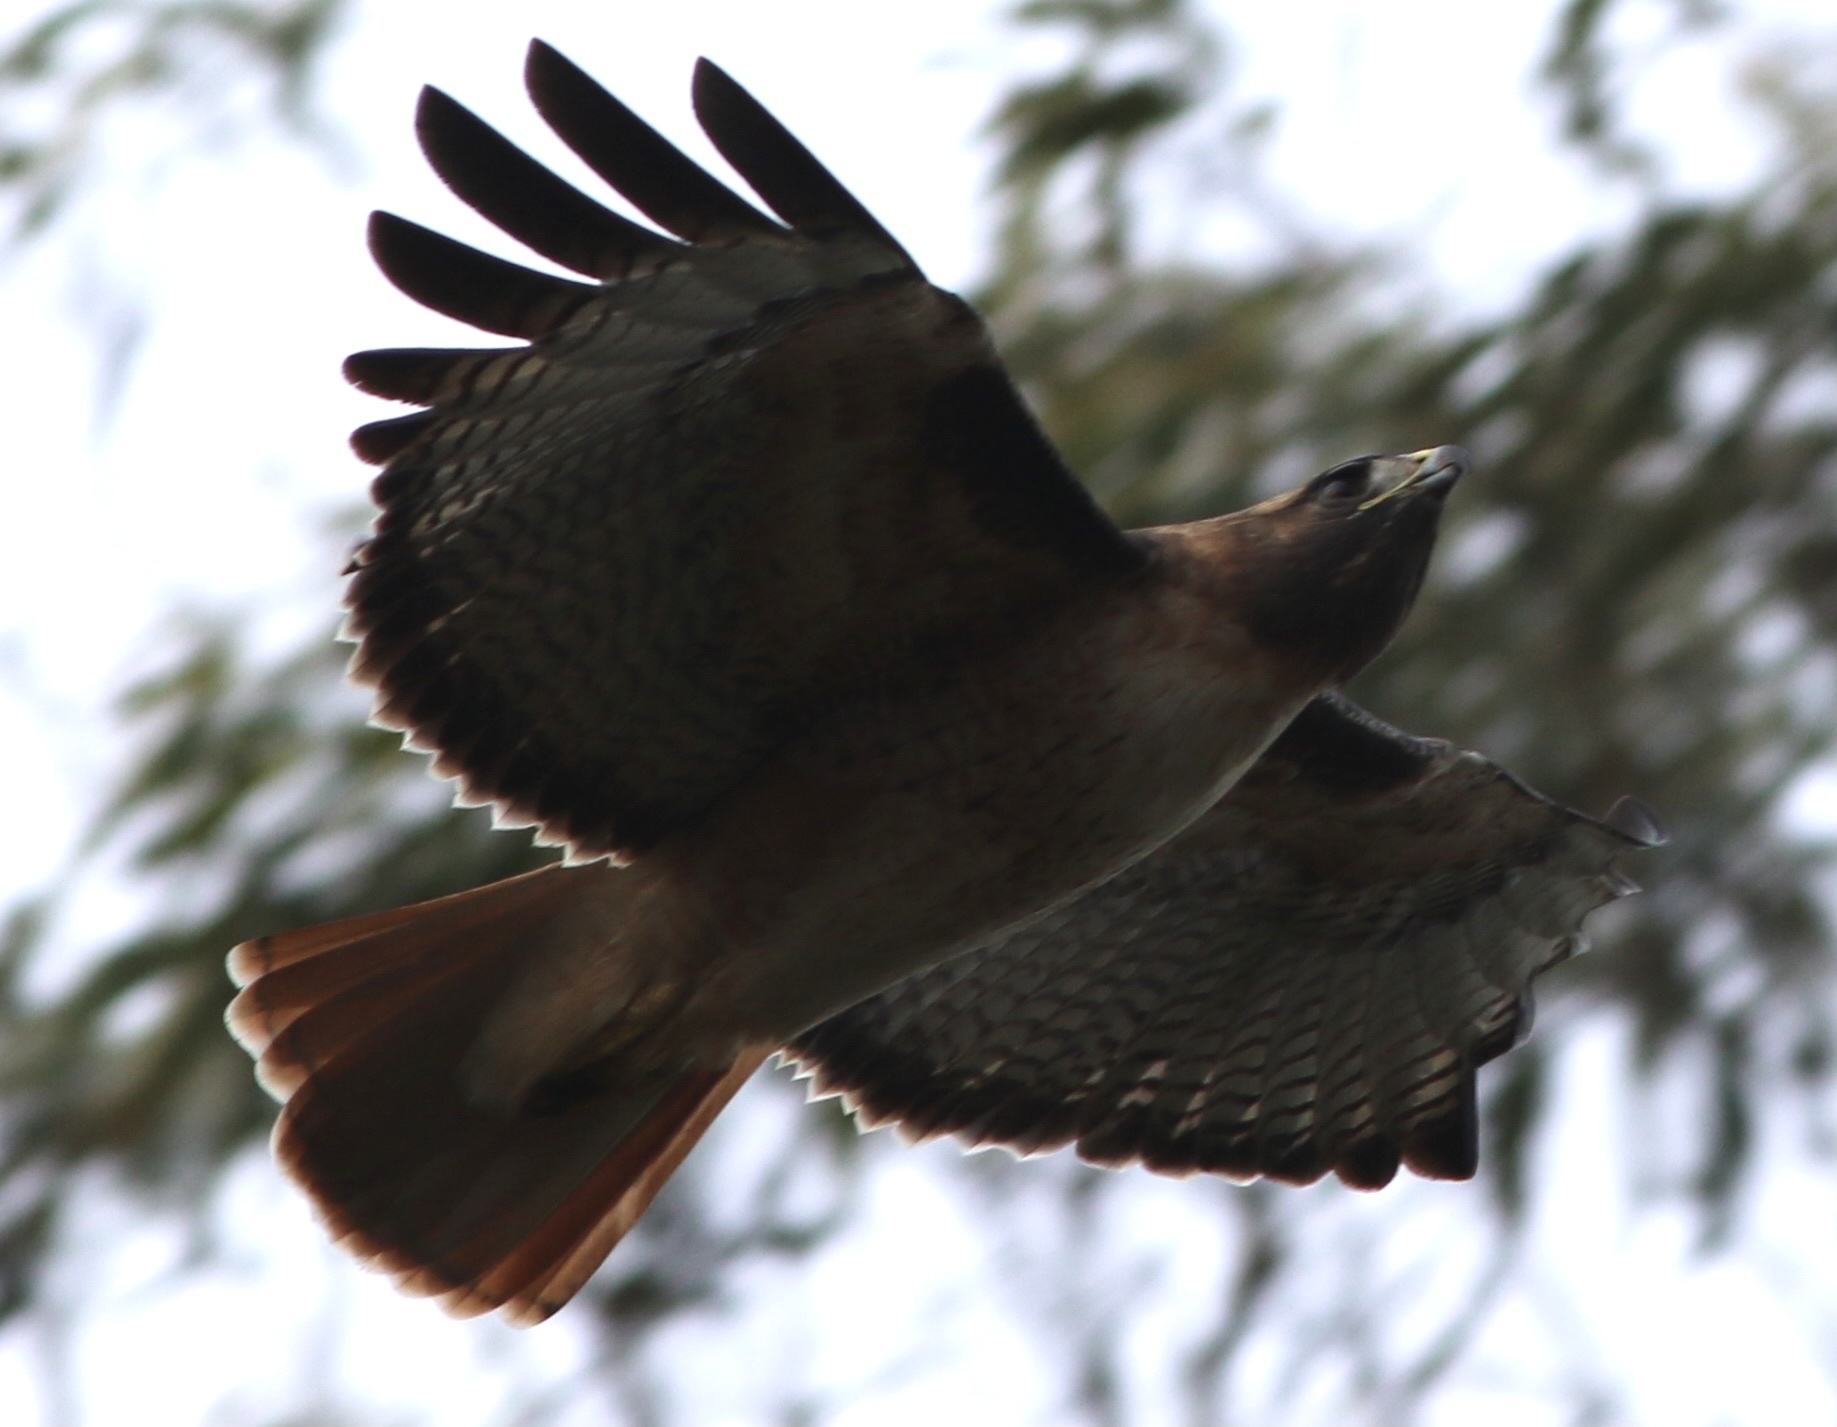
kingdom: Animalia
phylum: Chordata
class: Aves
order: Accipitriformes
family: Accipitridae
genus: Buteo
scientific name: Buteo jamaicensis
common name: Red-tailed hawk
